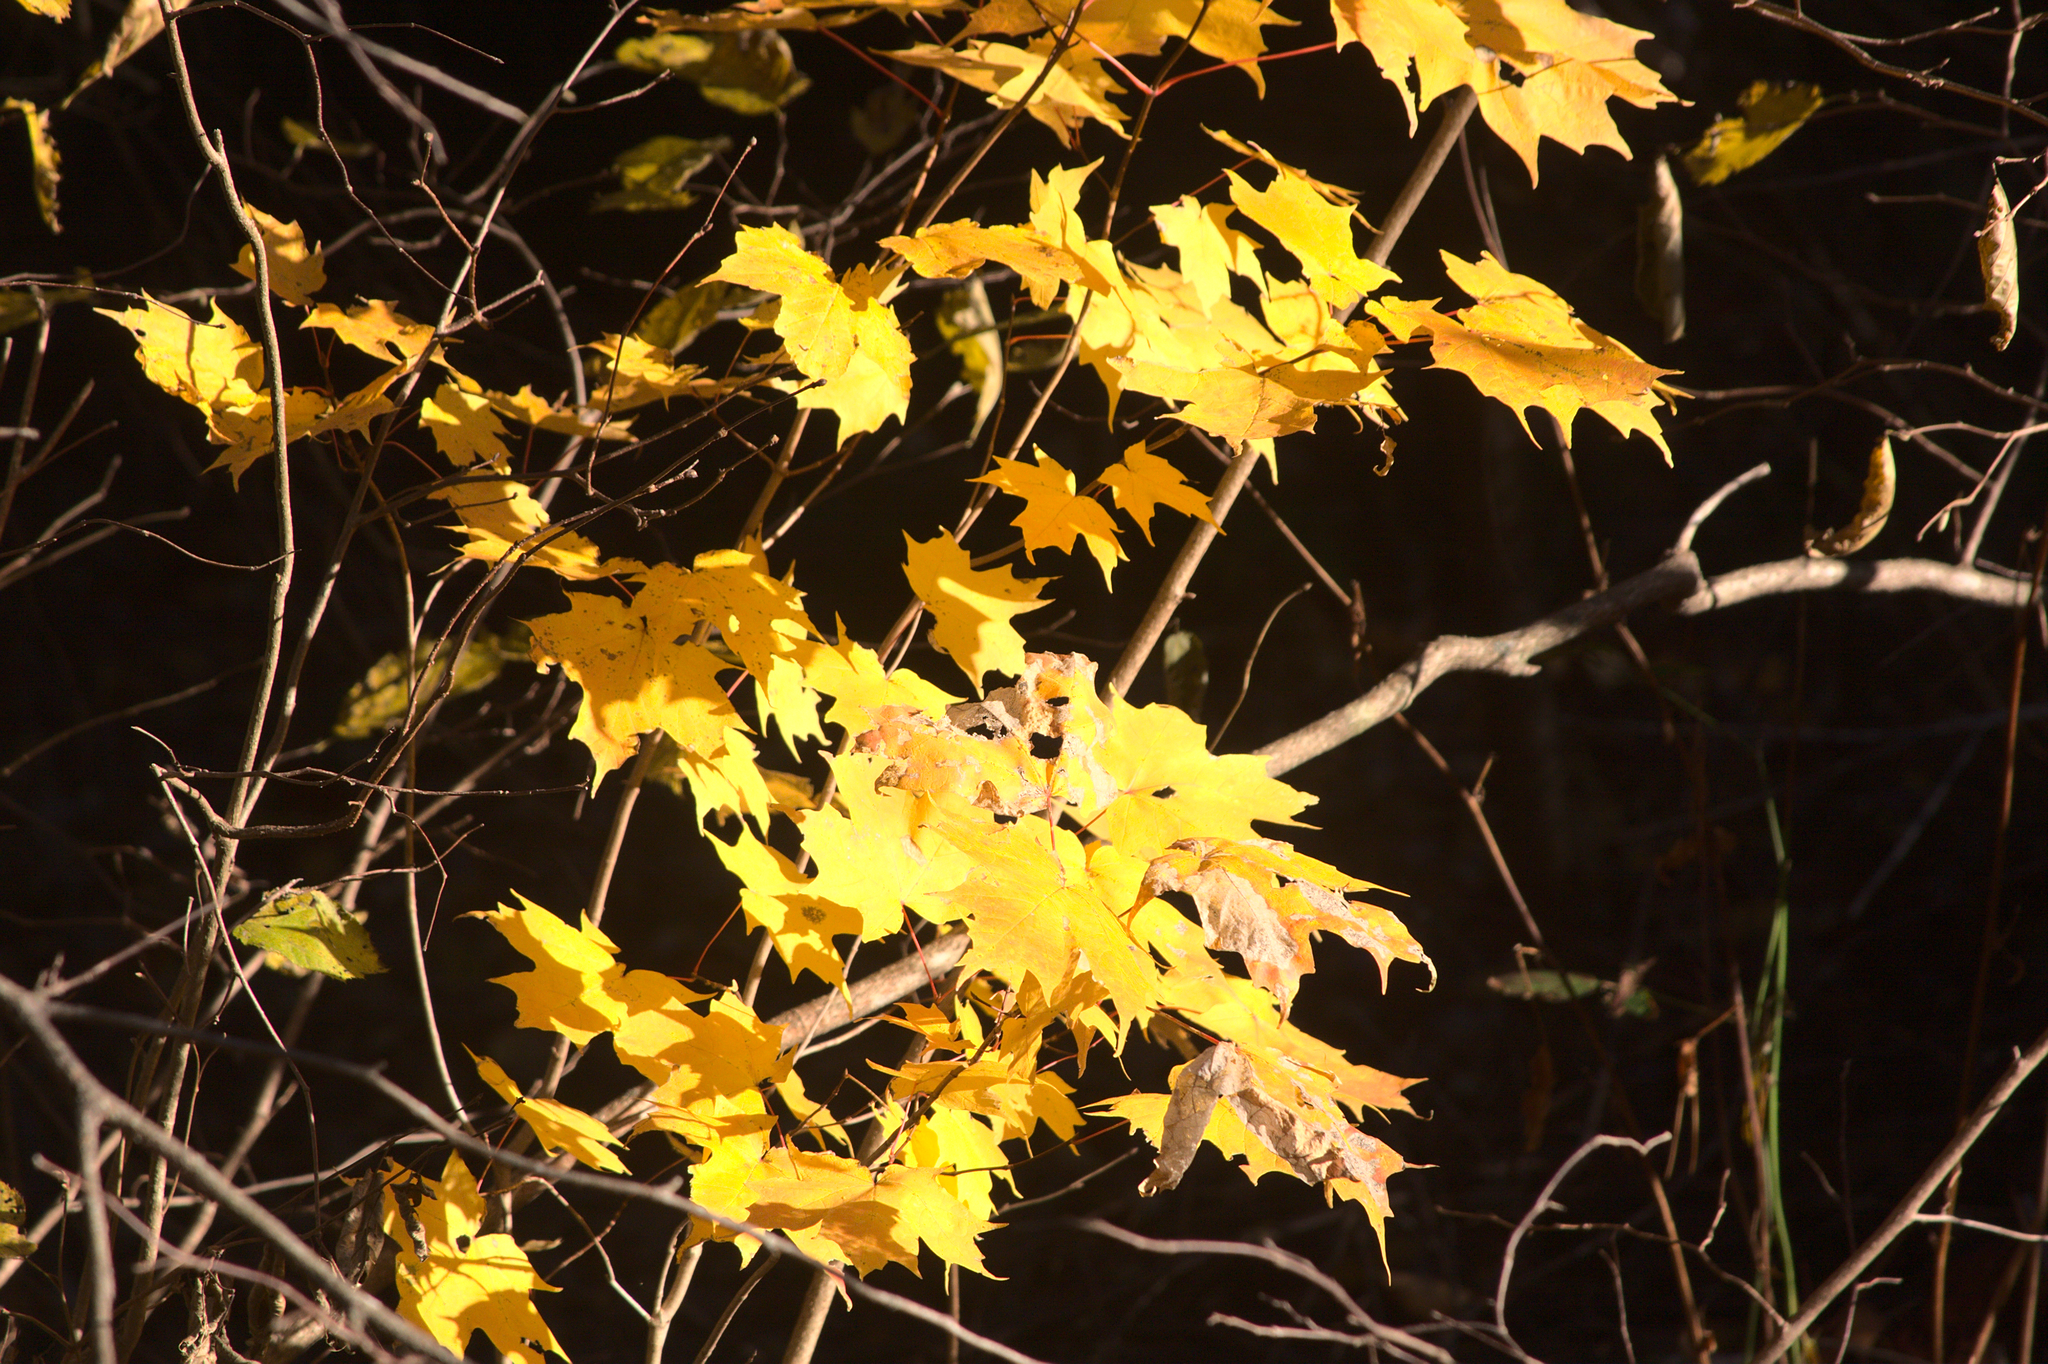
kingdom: Plantae
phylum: Tracheophyta
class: Magnoliopsida
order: Sapindales
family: Sapindaceae
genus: Acer
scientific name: Acer saccharum
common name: Sugar maple
